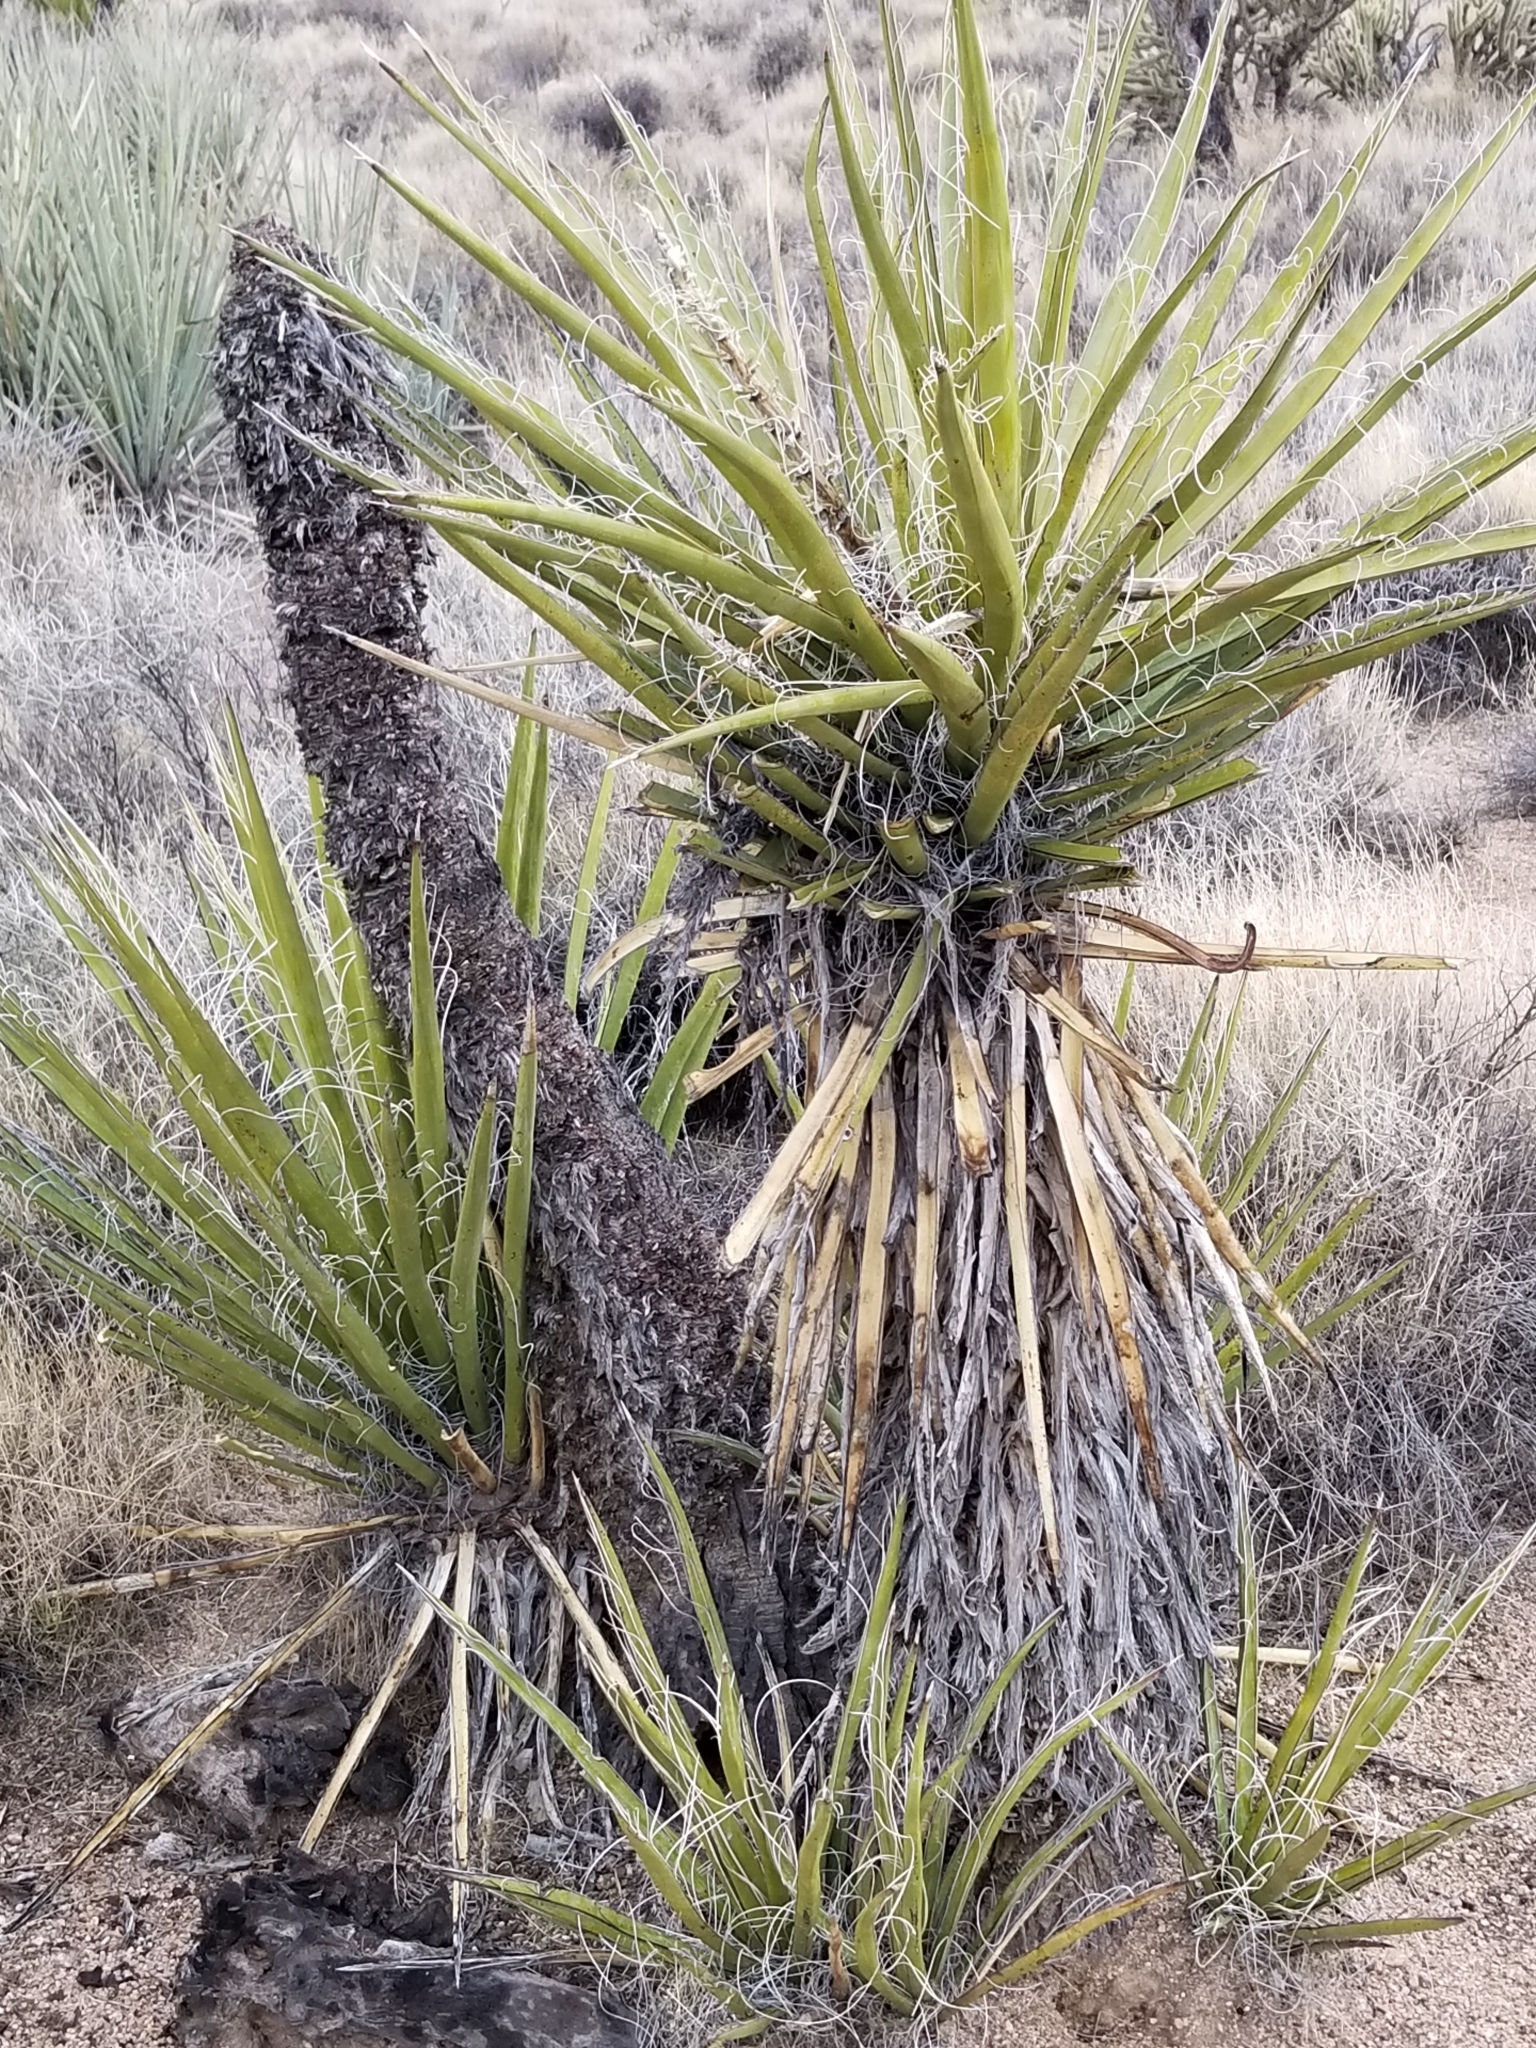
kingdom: Plantae
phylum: Tracheophyta
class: Liliopsida
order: Asparagales
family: Asparagaceae
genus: Yucca
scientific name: Yucca schidigera
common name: Mojave yucca
